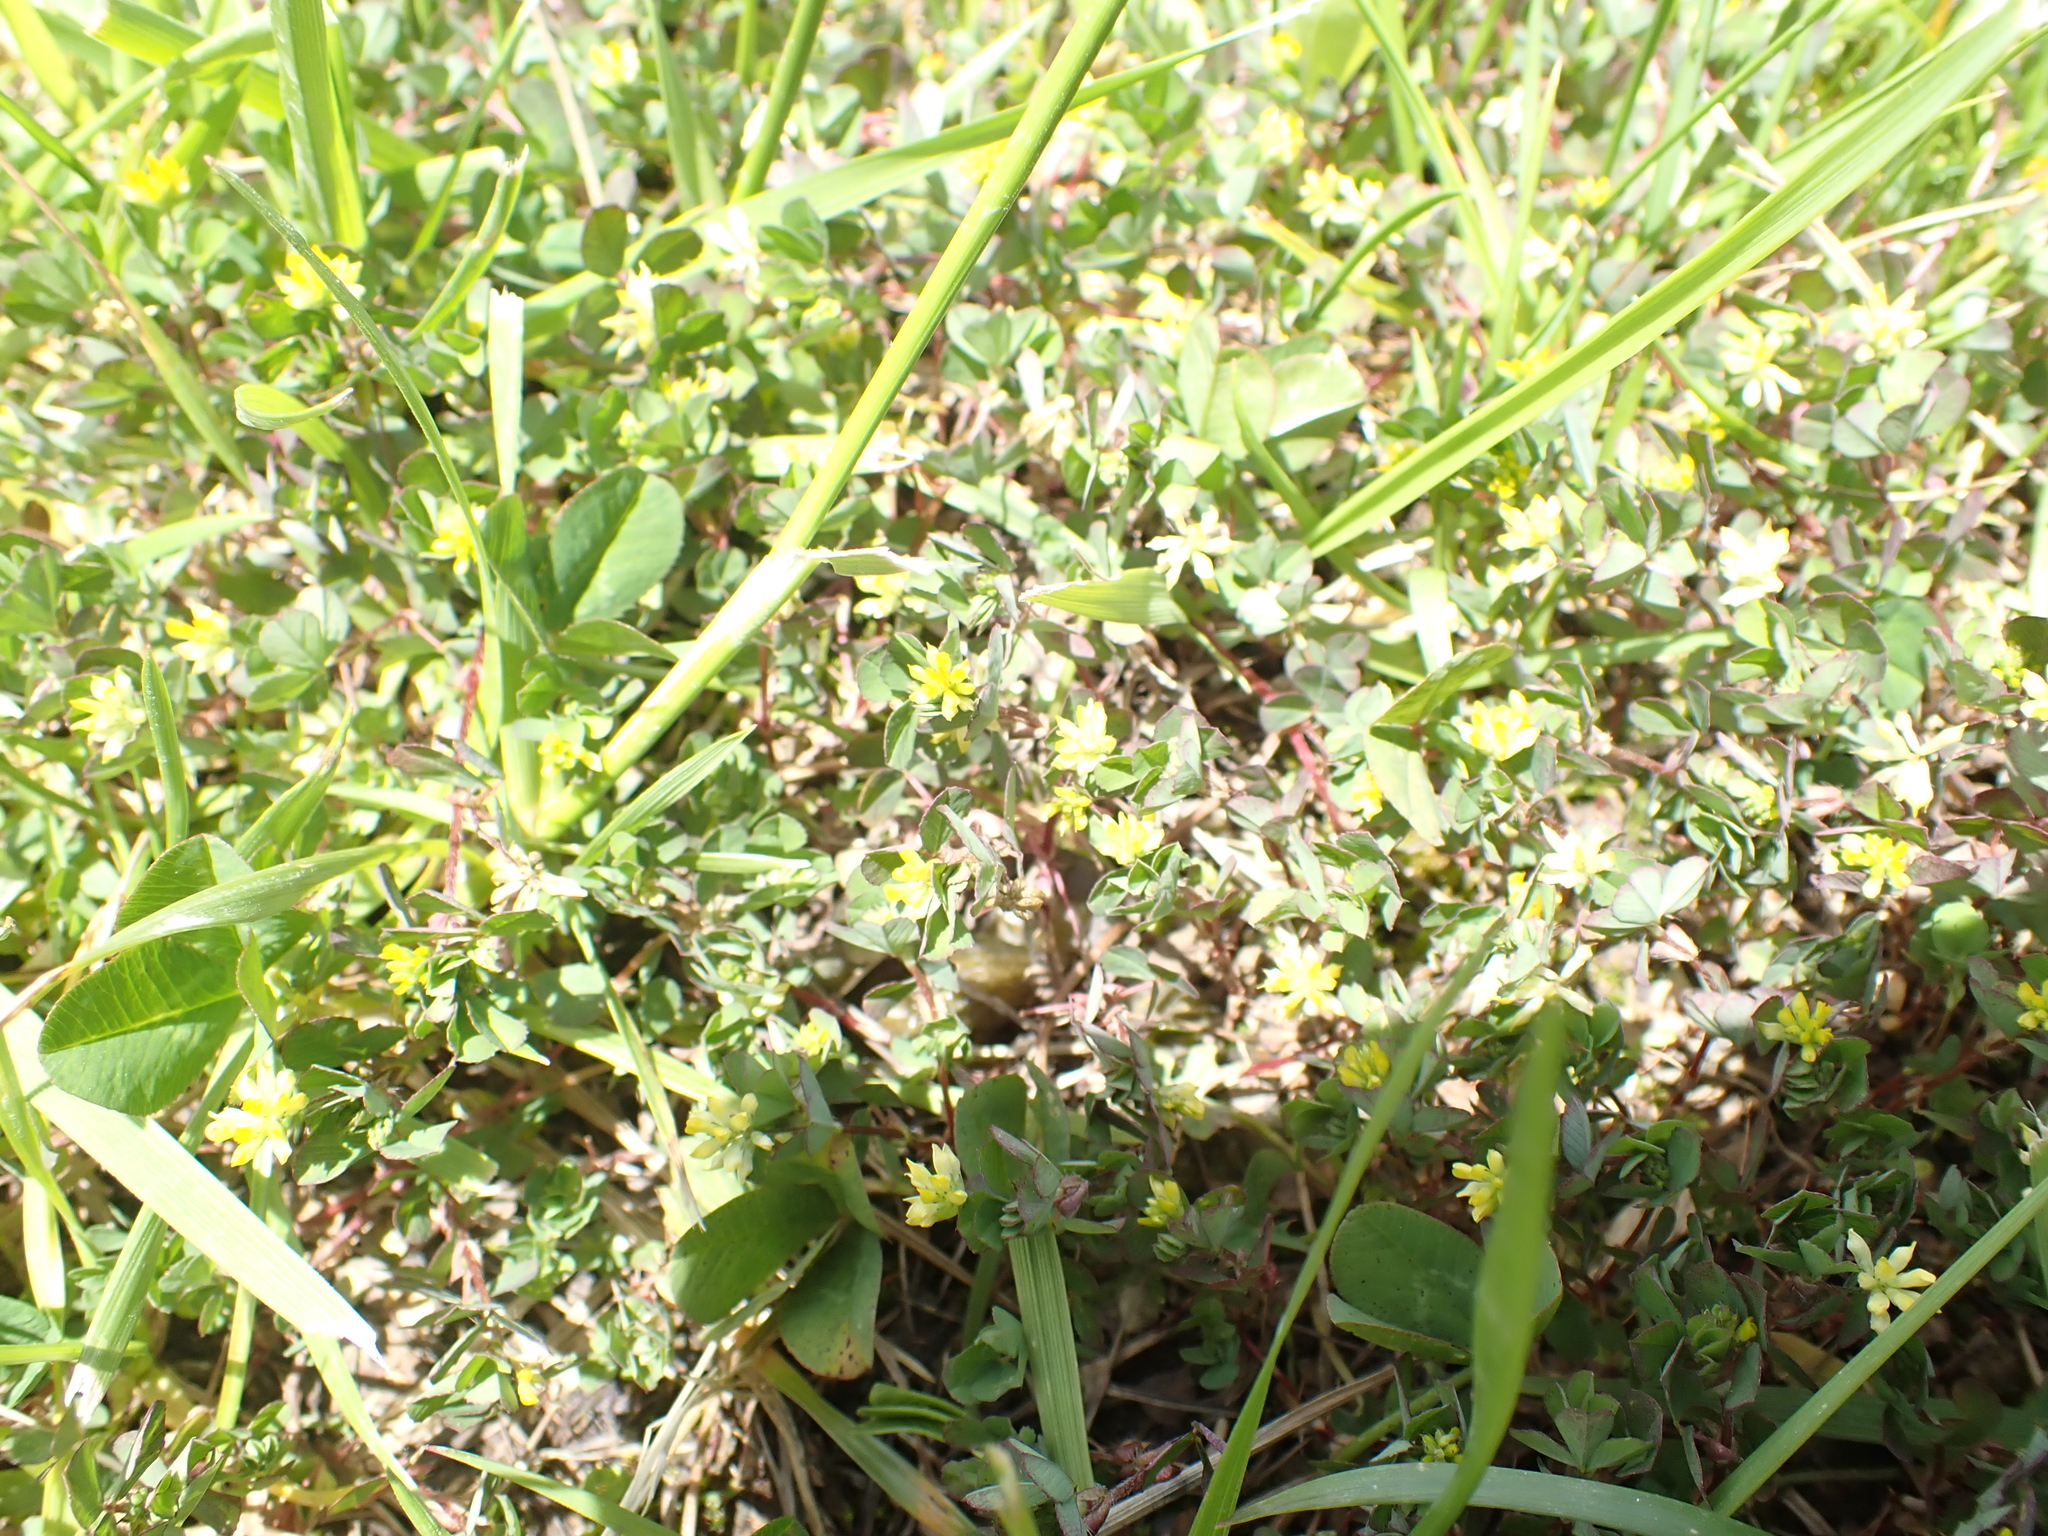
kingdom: Plantae
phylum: Tracheophyta
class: Magnoliopsida
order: Fabales
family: Fabaceae
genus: Trifolium
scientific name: Trifolium dubium
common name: Suckling clover
